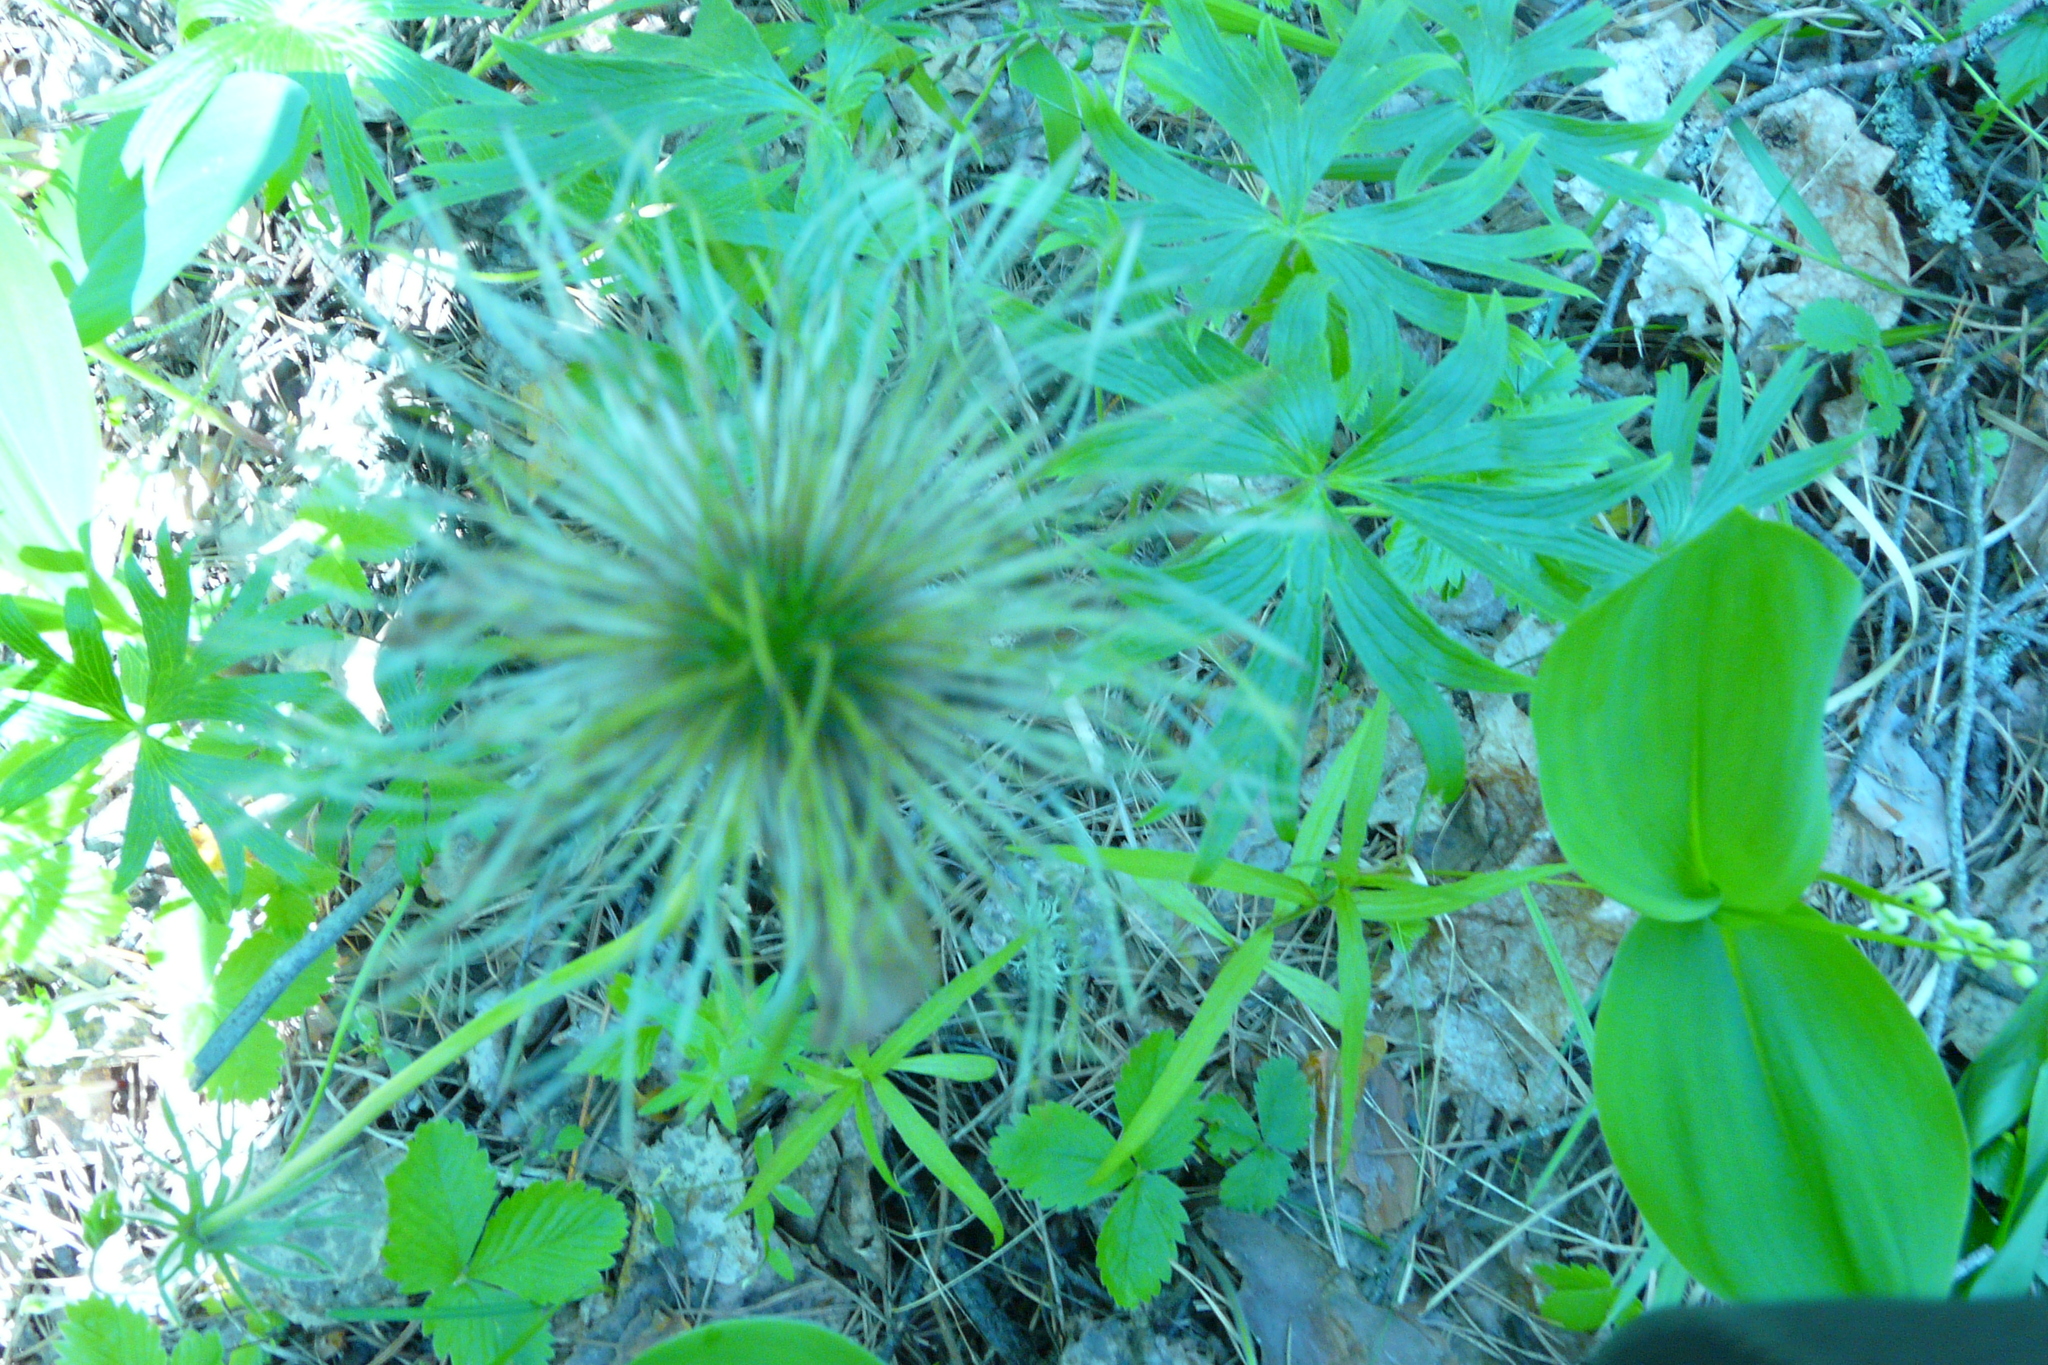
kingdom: Plantae
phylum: Tracheophyta
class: Magnoliopsida
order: Ranunculales
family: Ranunculaceae
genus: Pulsatilla
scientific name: Pulsatilla patens
